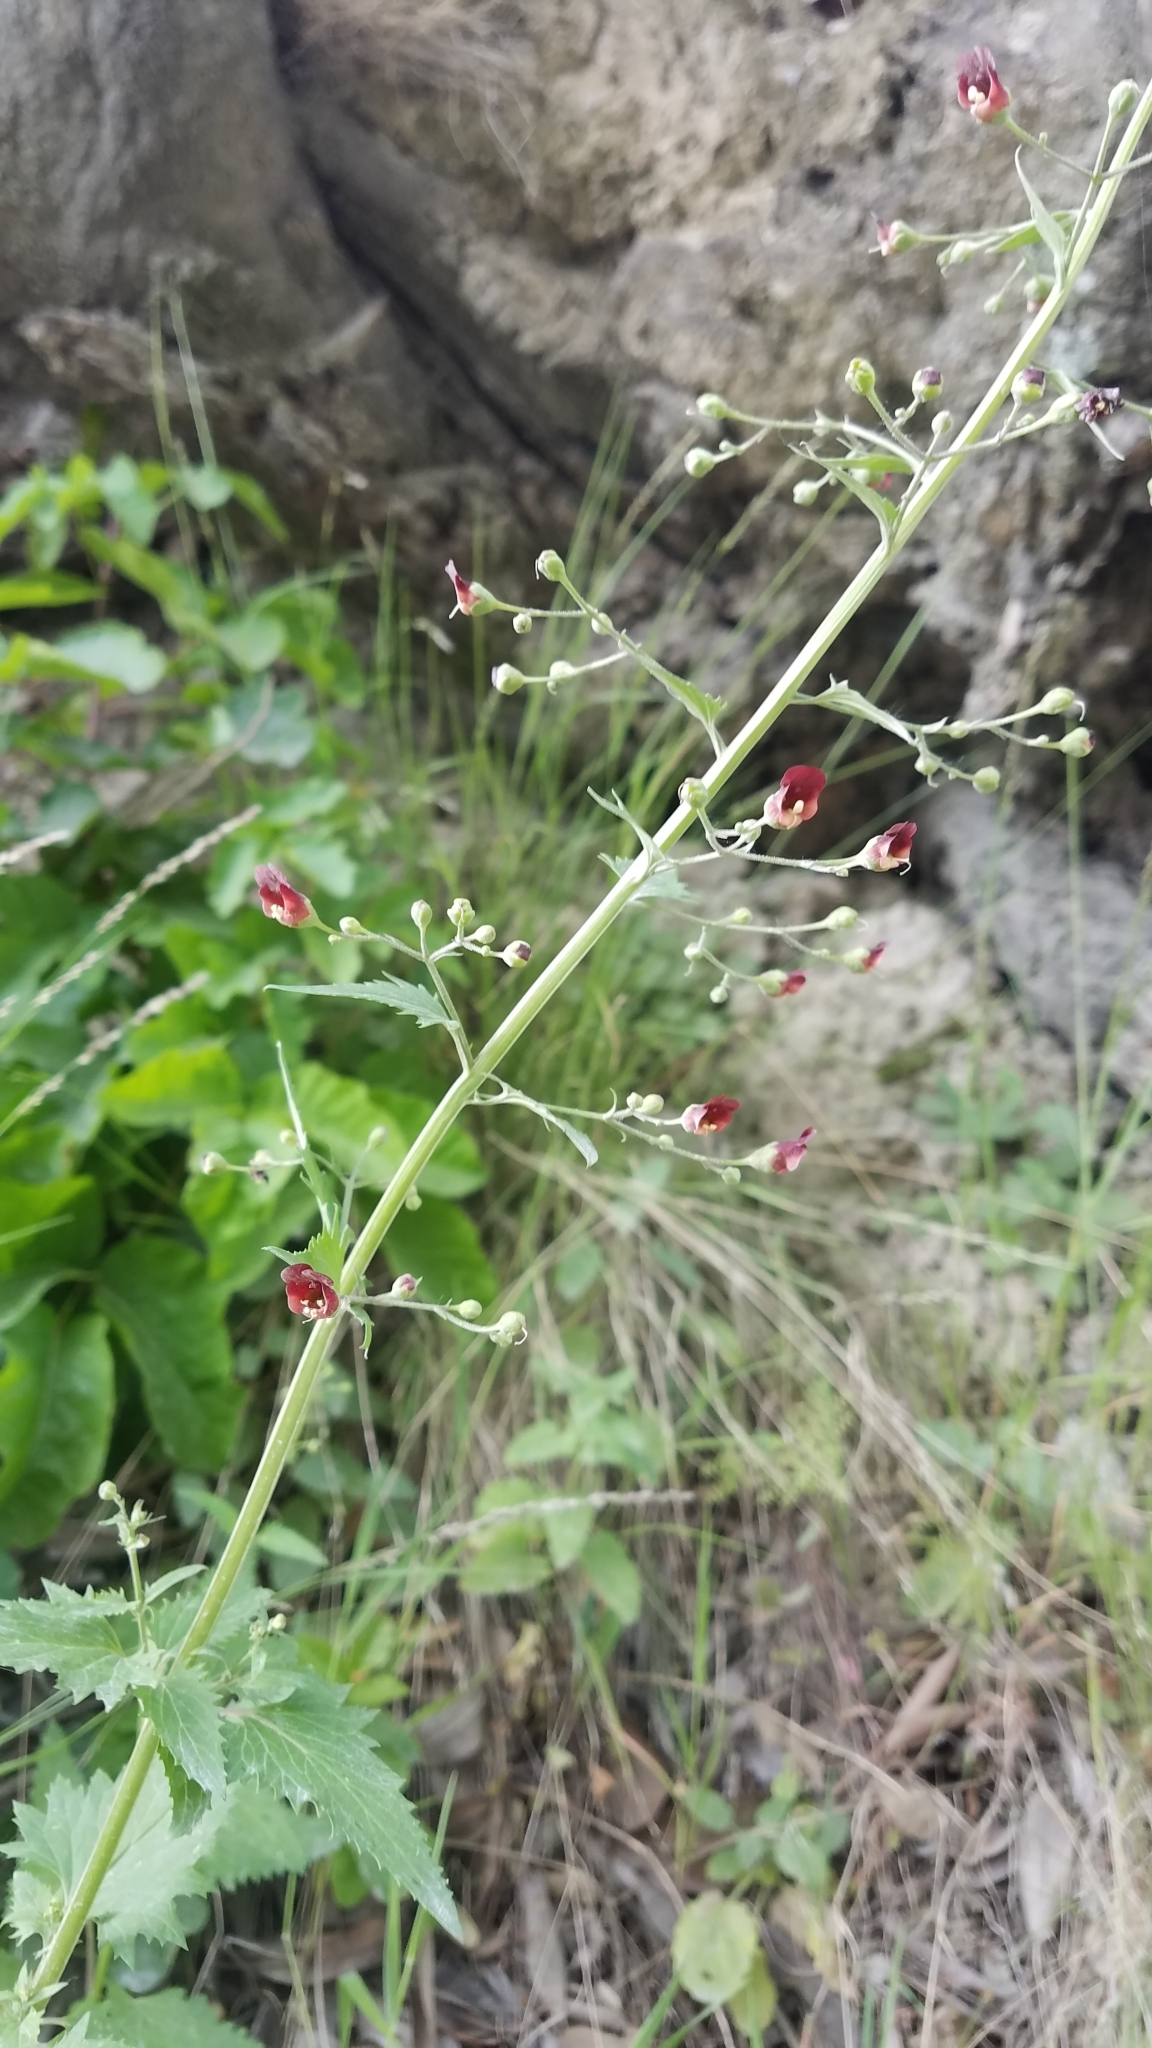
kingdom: Plantae
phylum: Tracheophyta
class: Magnoliopsida
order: Lamiales
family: Scrophulariaceae
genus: Scrophularia
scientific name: Scrophularia californica
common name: California figwort
